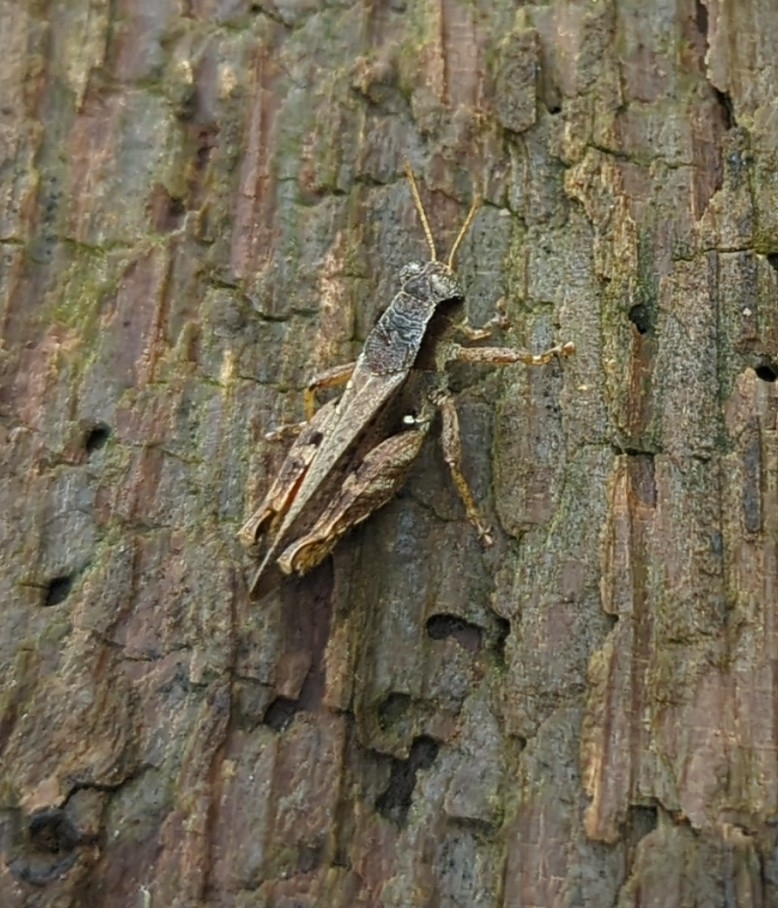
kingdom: Animalia
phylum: Arthropoda
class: Insecta
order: Orthoptera
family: Acrididae
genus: Aidemona
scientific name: Aidemona azteca
